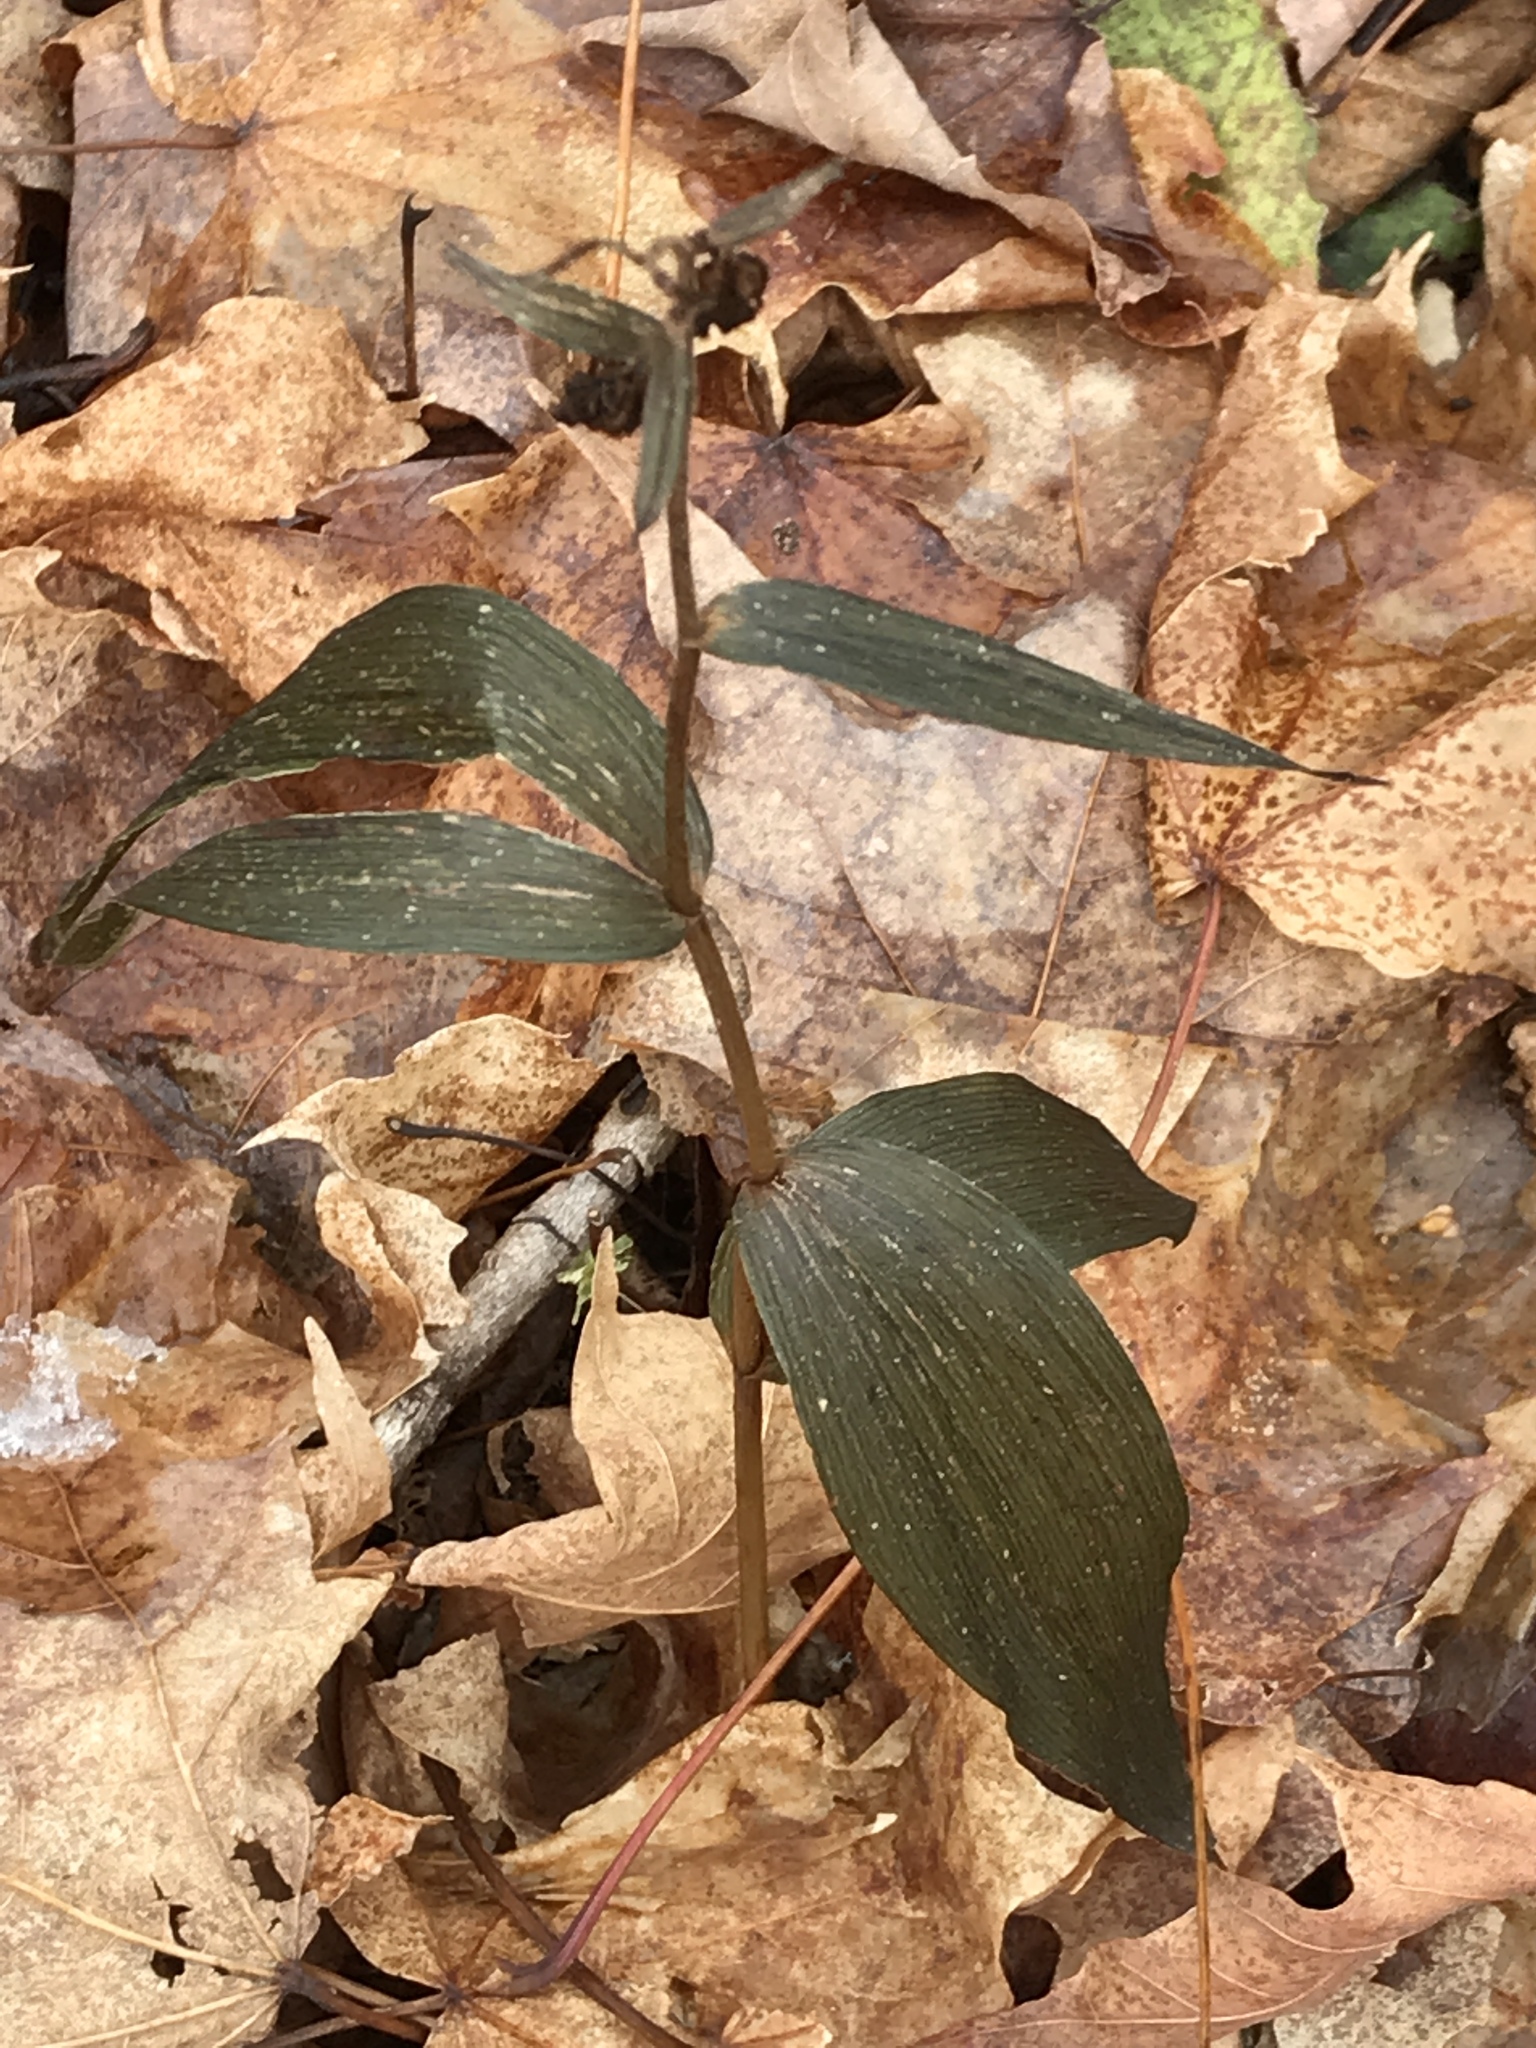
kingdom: Plantae
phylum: Tracheophyta
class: Liliopsida
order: Asparagales
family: Orchidaceae
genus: Epipactis
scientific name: Epipactis helleborine
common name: Broad-leaved helleborine
